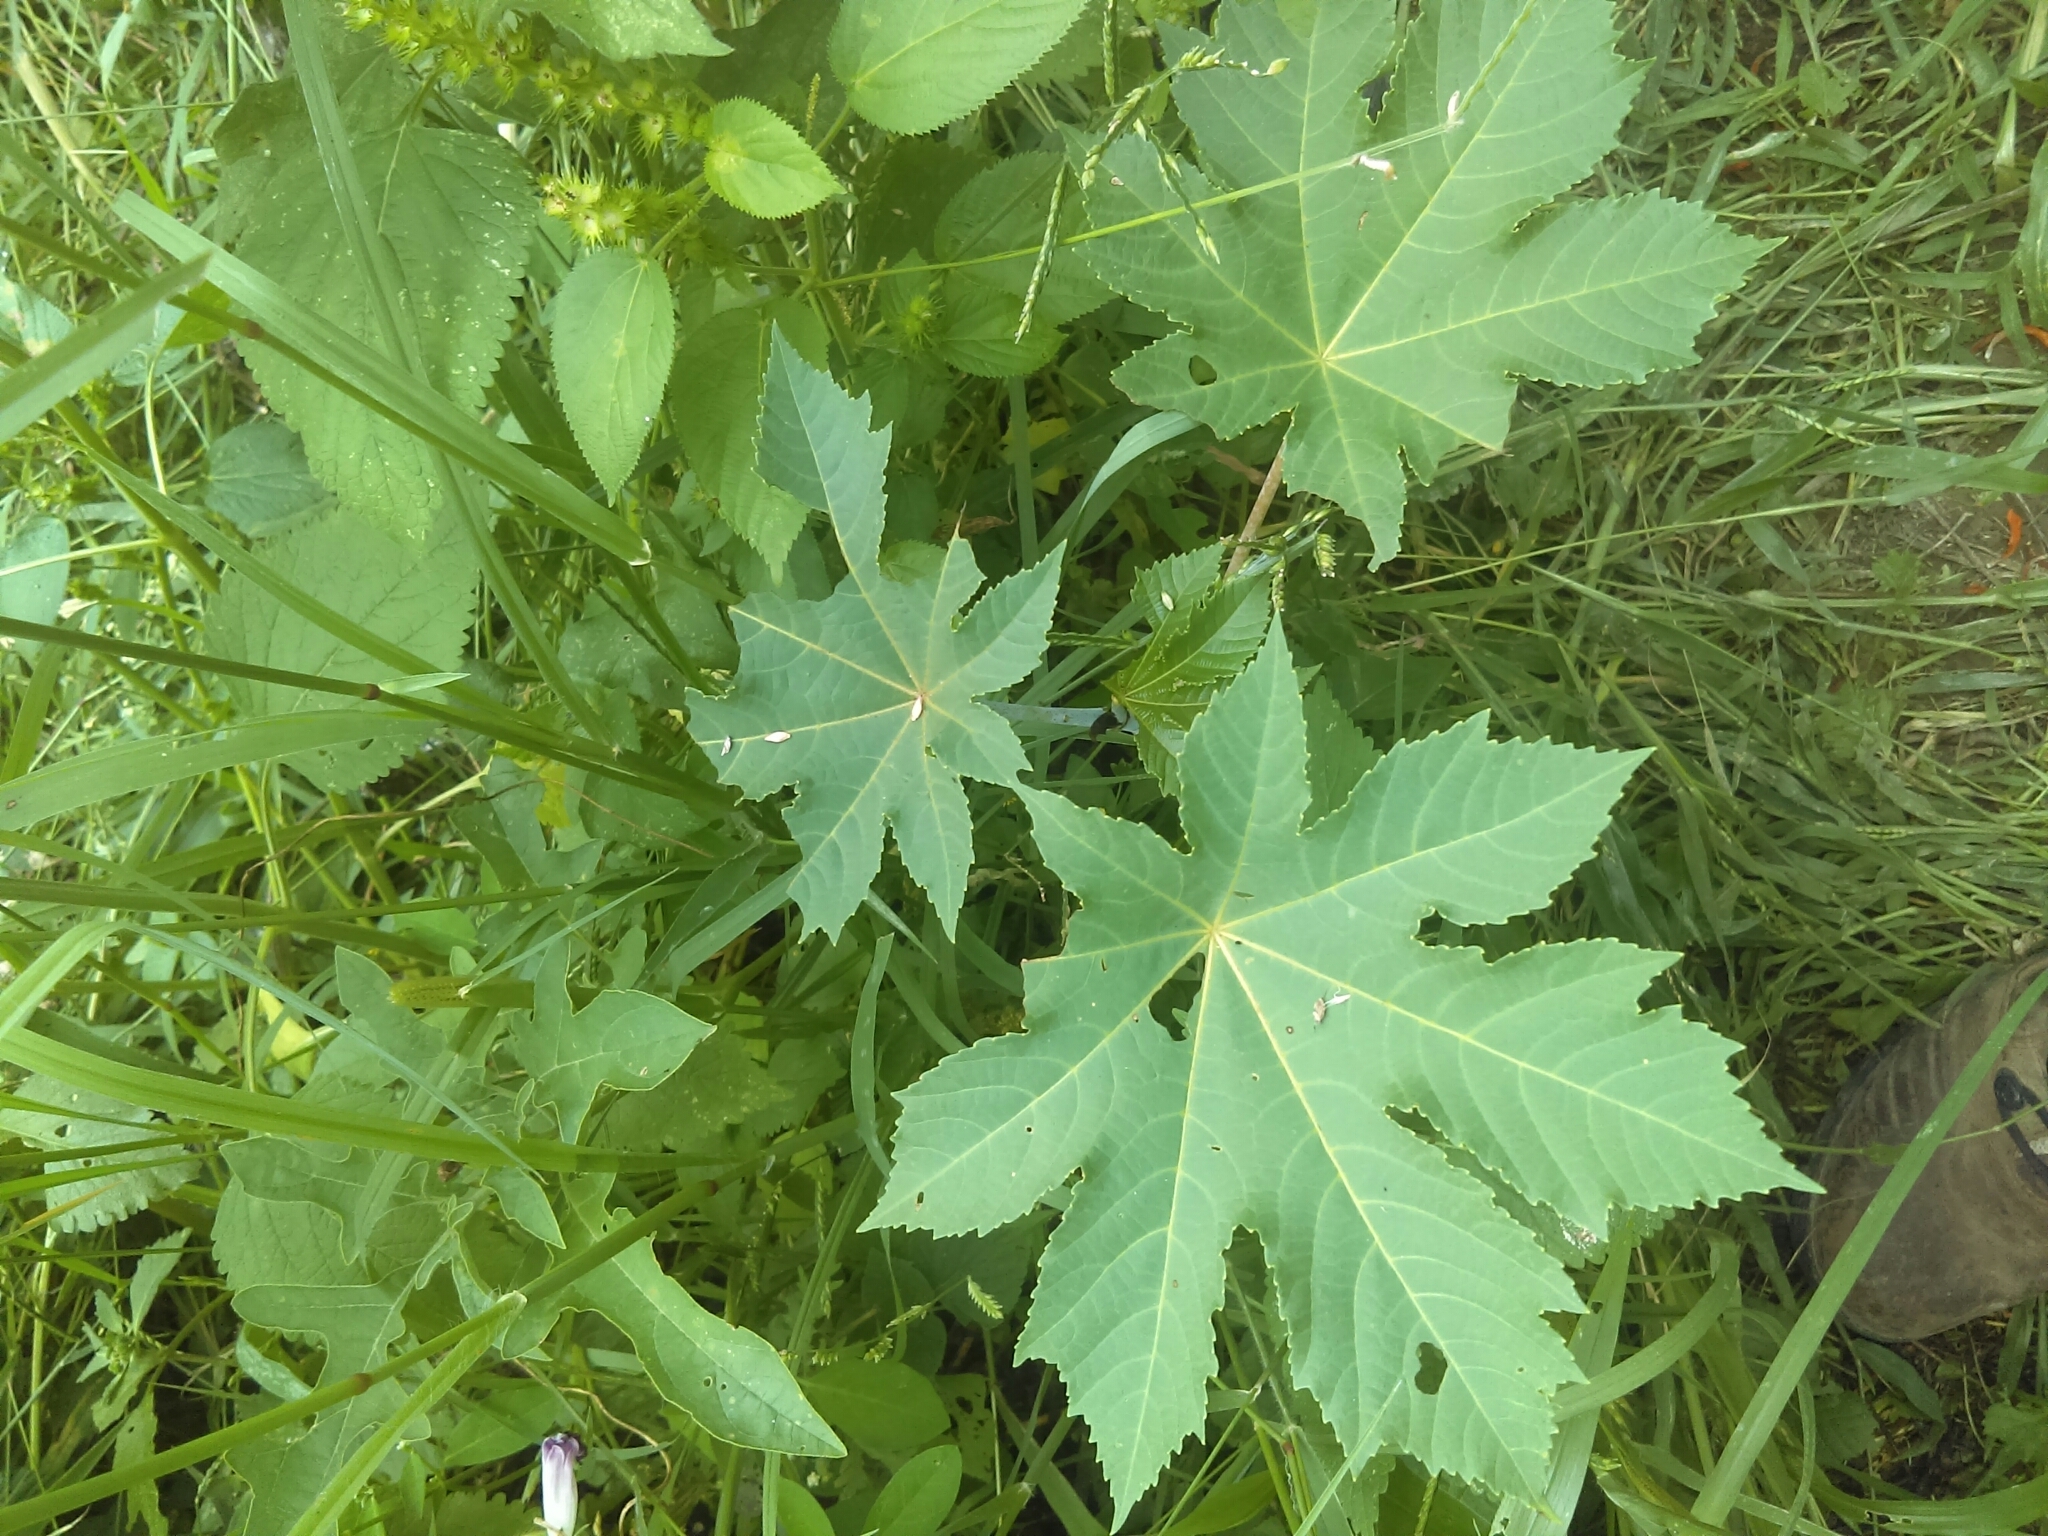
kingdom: Plantae
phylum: Tracheophyta
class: Magnoliopsida
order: Malpighiales
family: Euphorbiaceae
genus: Ricinus
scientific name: Ricinus communis
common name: Castor-oil-plant
